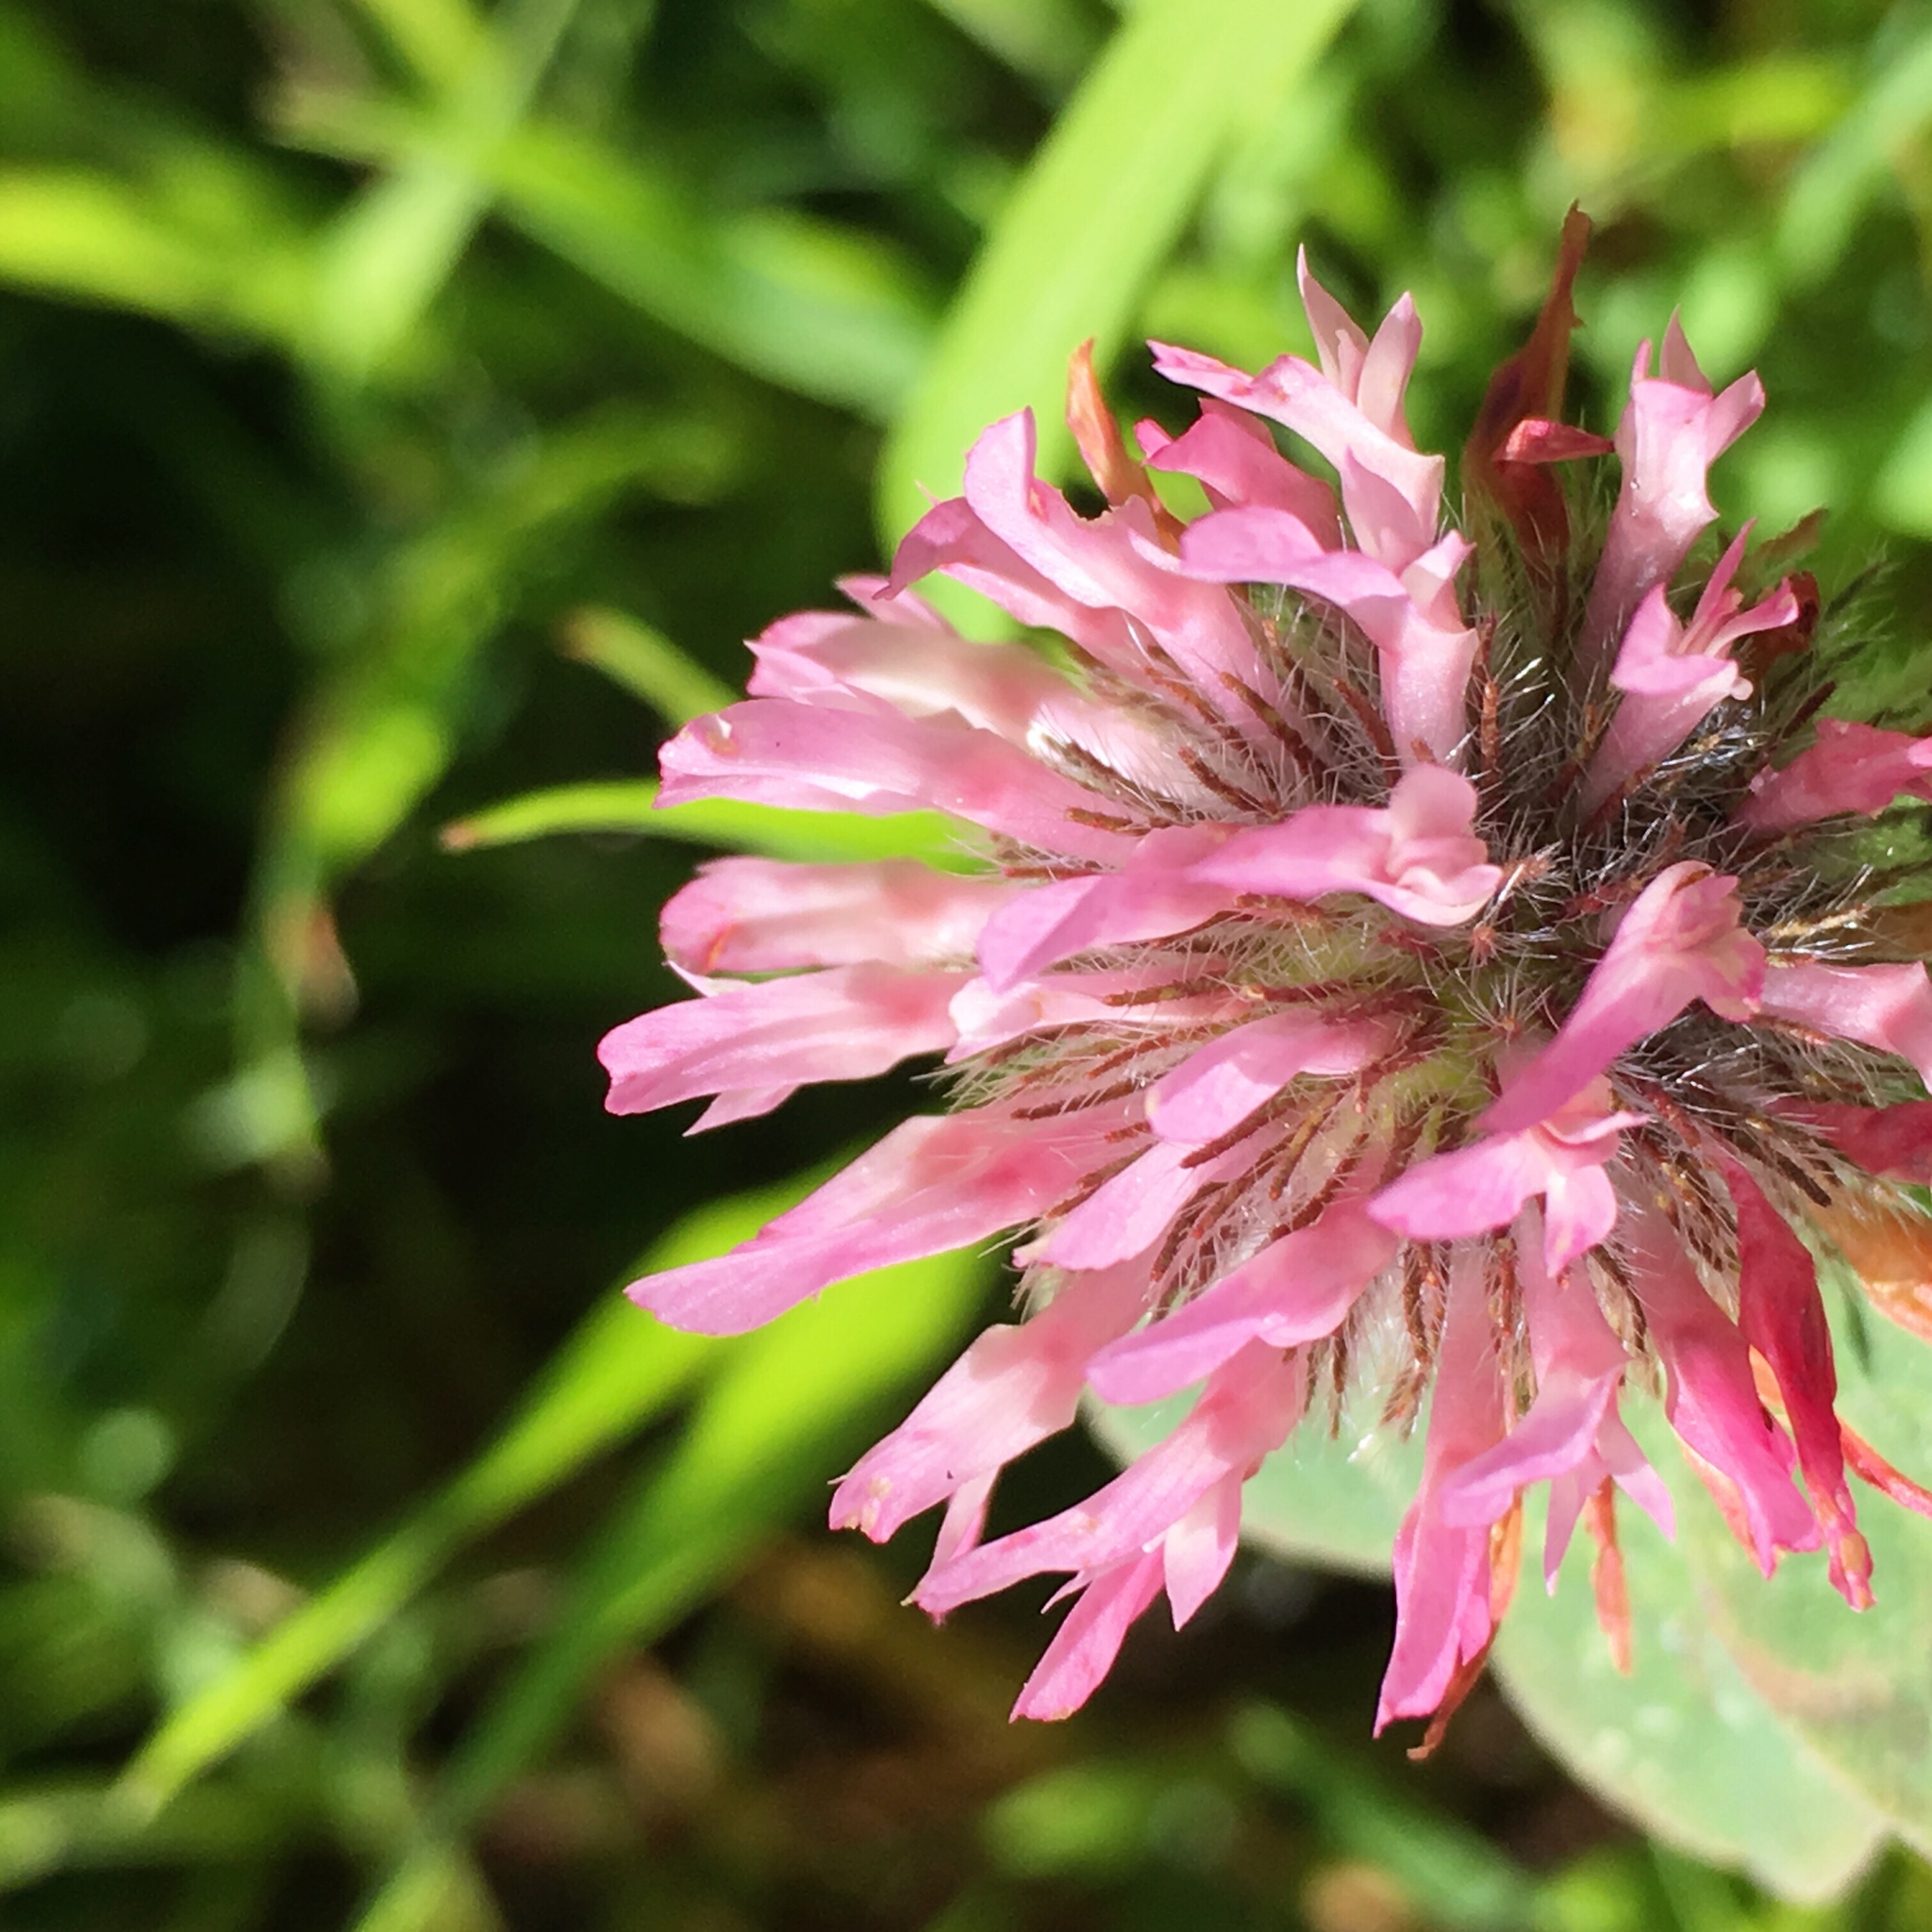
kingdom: Plantae
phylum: Tracheophyta
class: Magnoliopsida
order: Fabales
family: Fabaceae
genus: Trifolium
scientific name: Trifolium hirtum
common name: Rose clover
